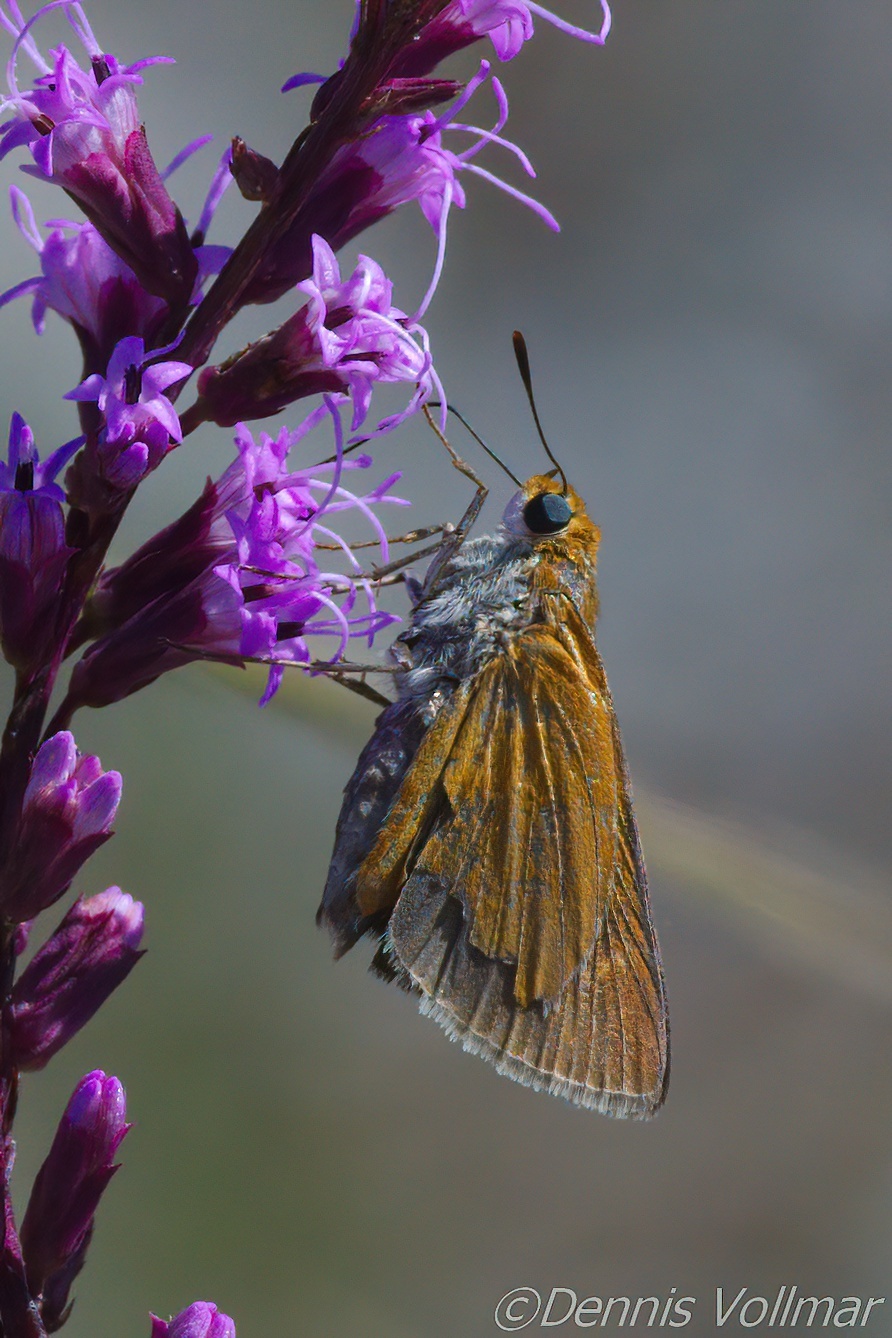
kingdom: Animalia
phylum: Arthropoda
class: Insecta
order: Lepidoptera
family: Hesperiidae
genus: Euphyes
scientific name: Euphyes arpa
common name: Palmetto skipper
